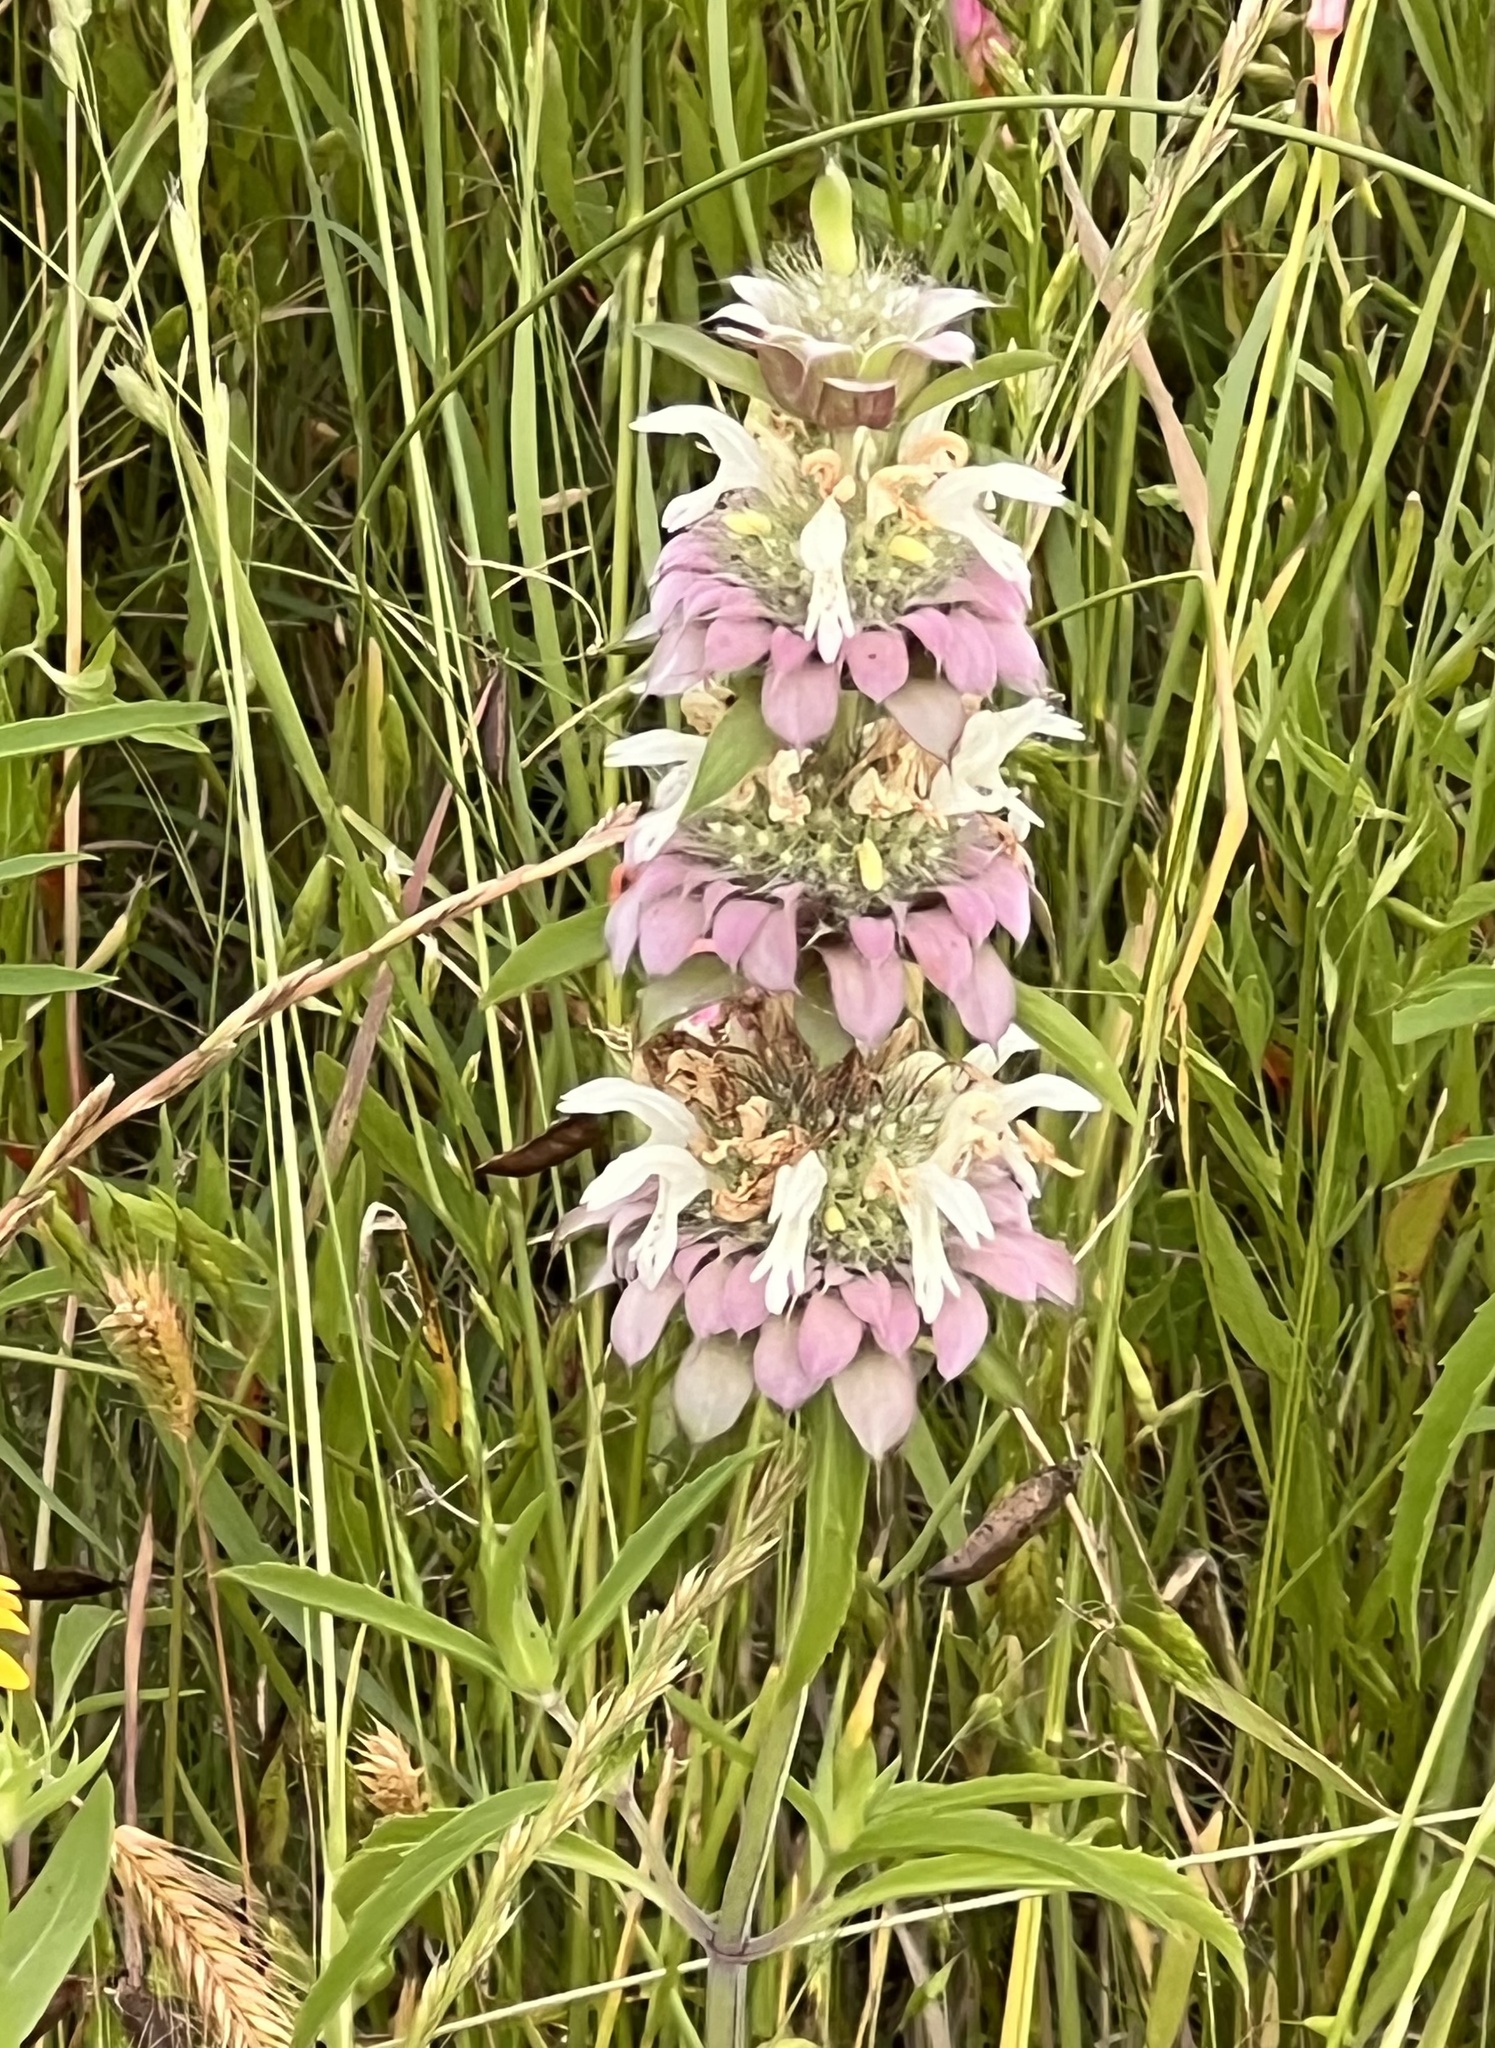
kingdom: Plantae
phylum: Tracheophyta
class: Magnoliopsida
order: Lamiales
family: Lamiaceae
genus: Monarda
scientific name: Monarda citriodora
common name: Lemon beebalm
